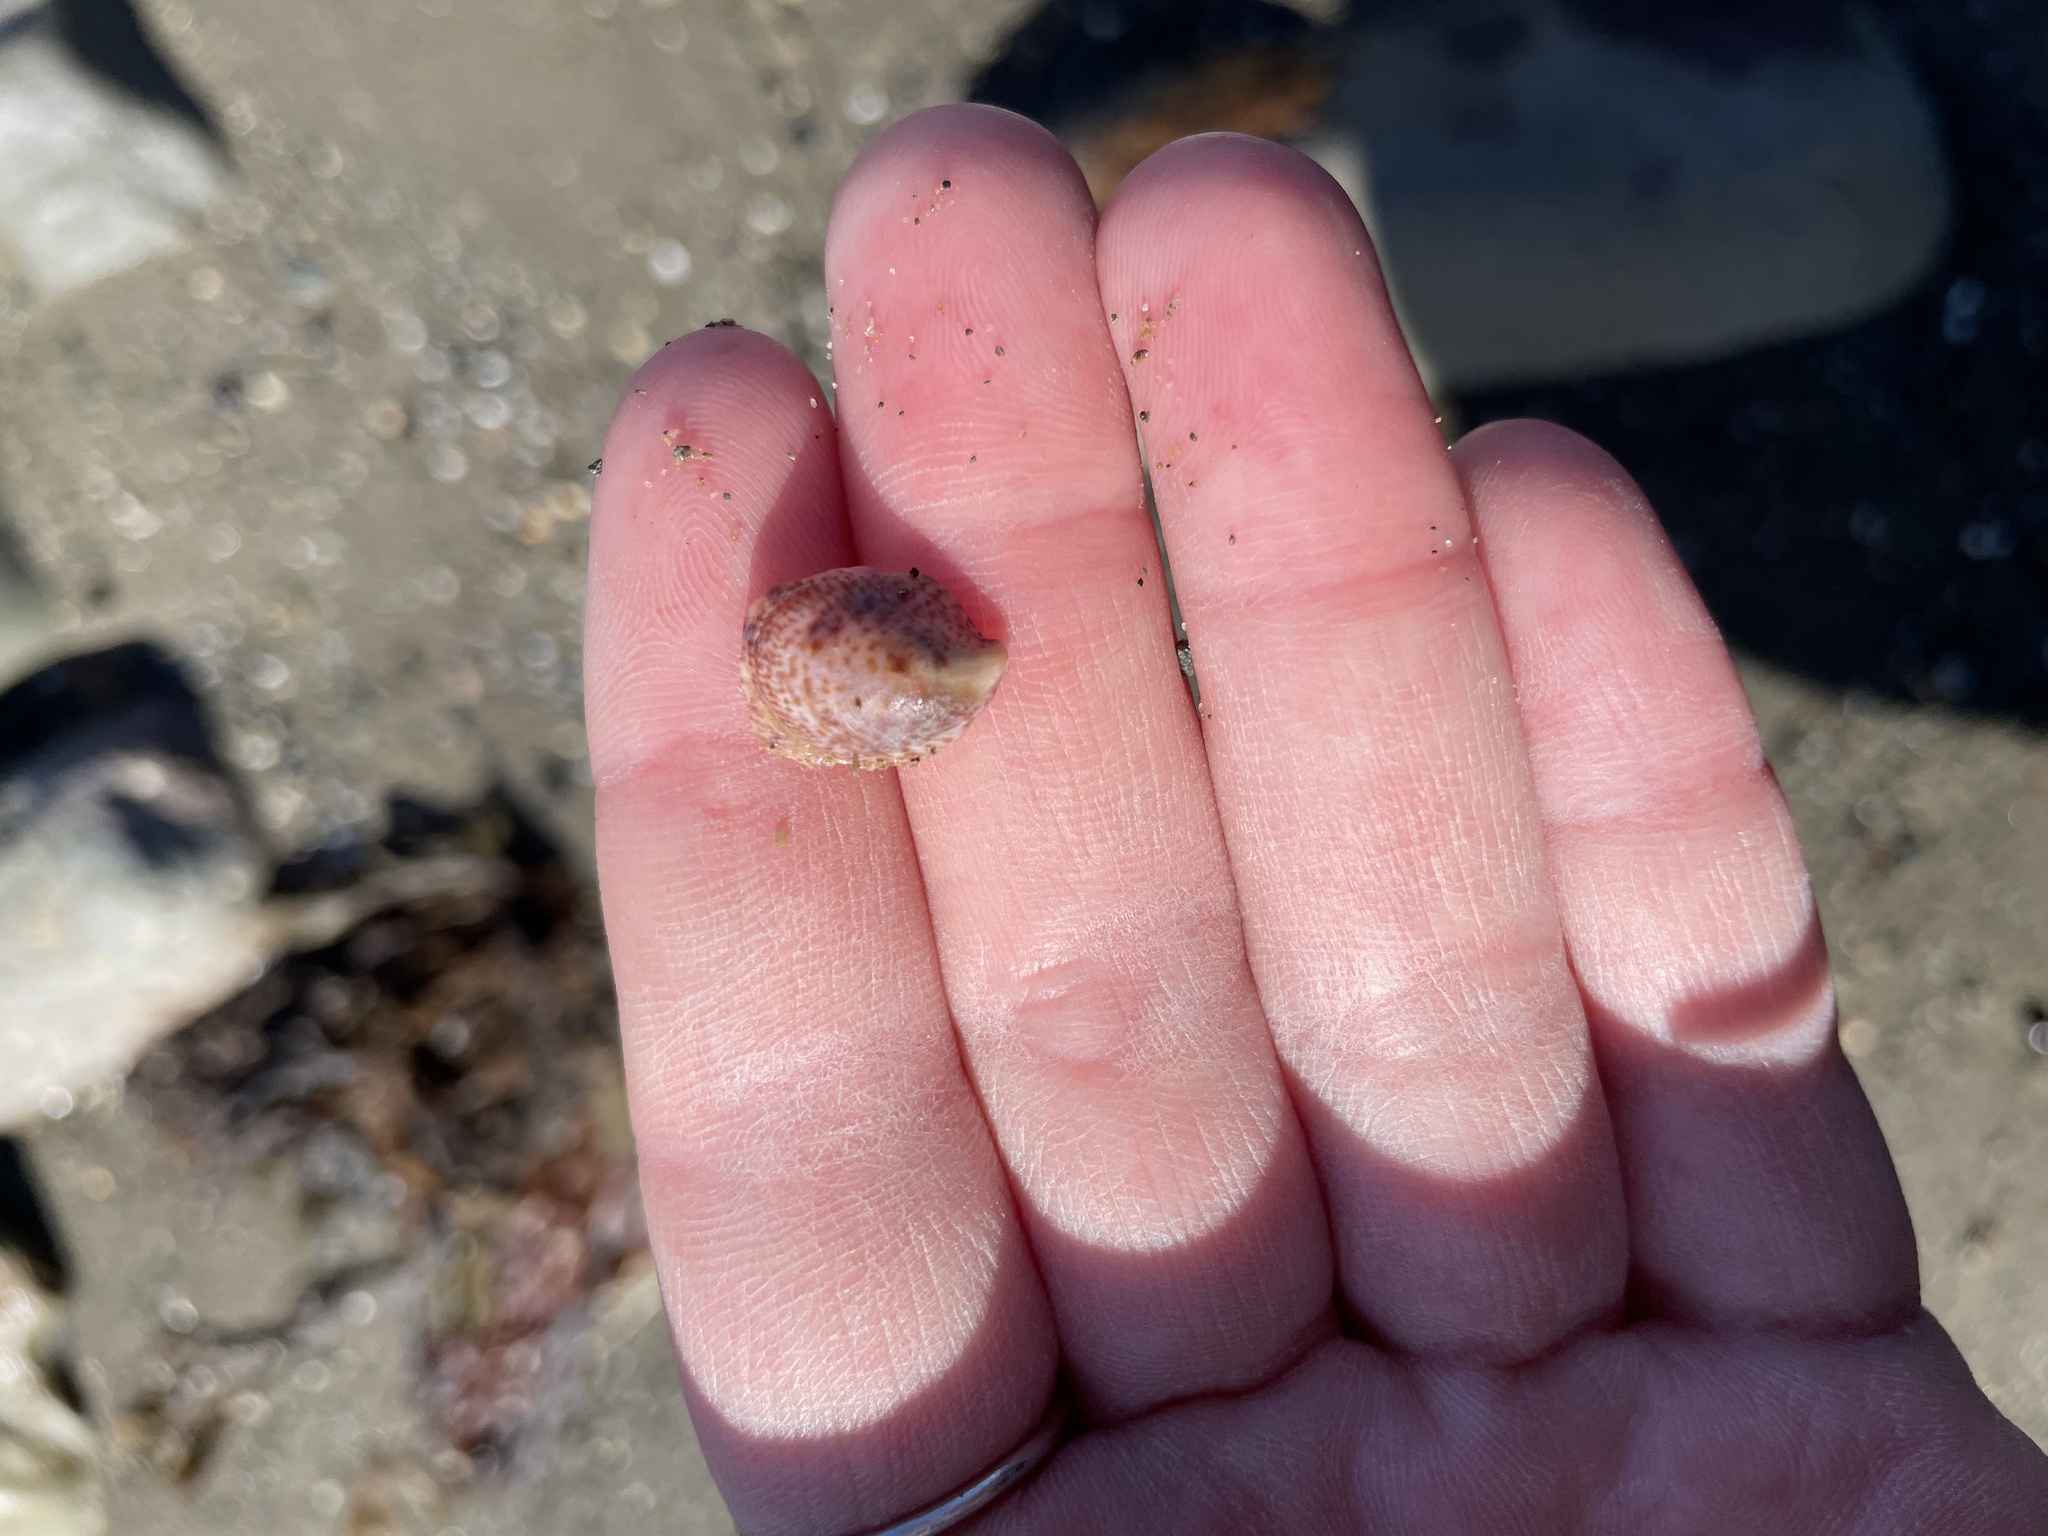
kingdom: Animalia
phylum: Mollusca
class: Gastropoda
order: Littorinimorpha
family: Calyptraeidae
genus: Crepidula
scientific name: Crepidula fornicata
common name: Slipper limpet
